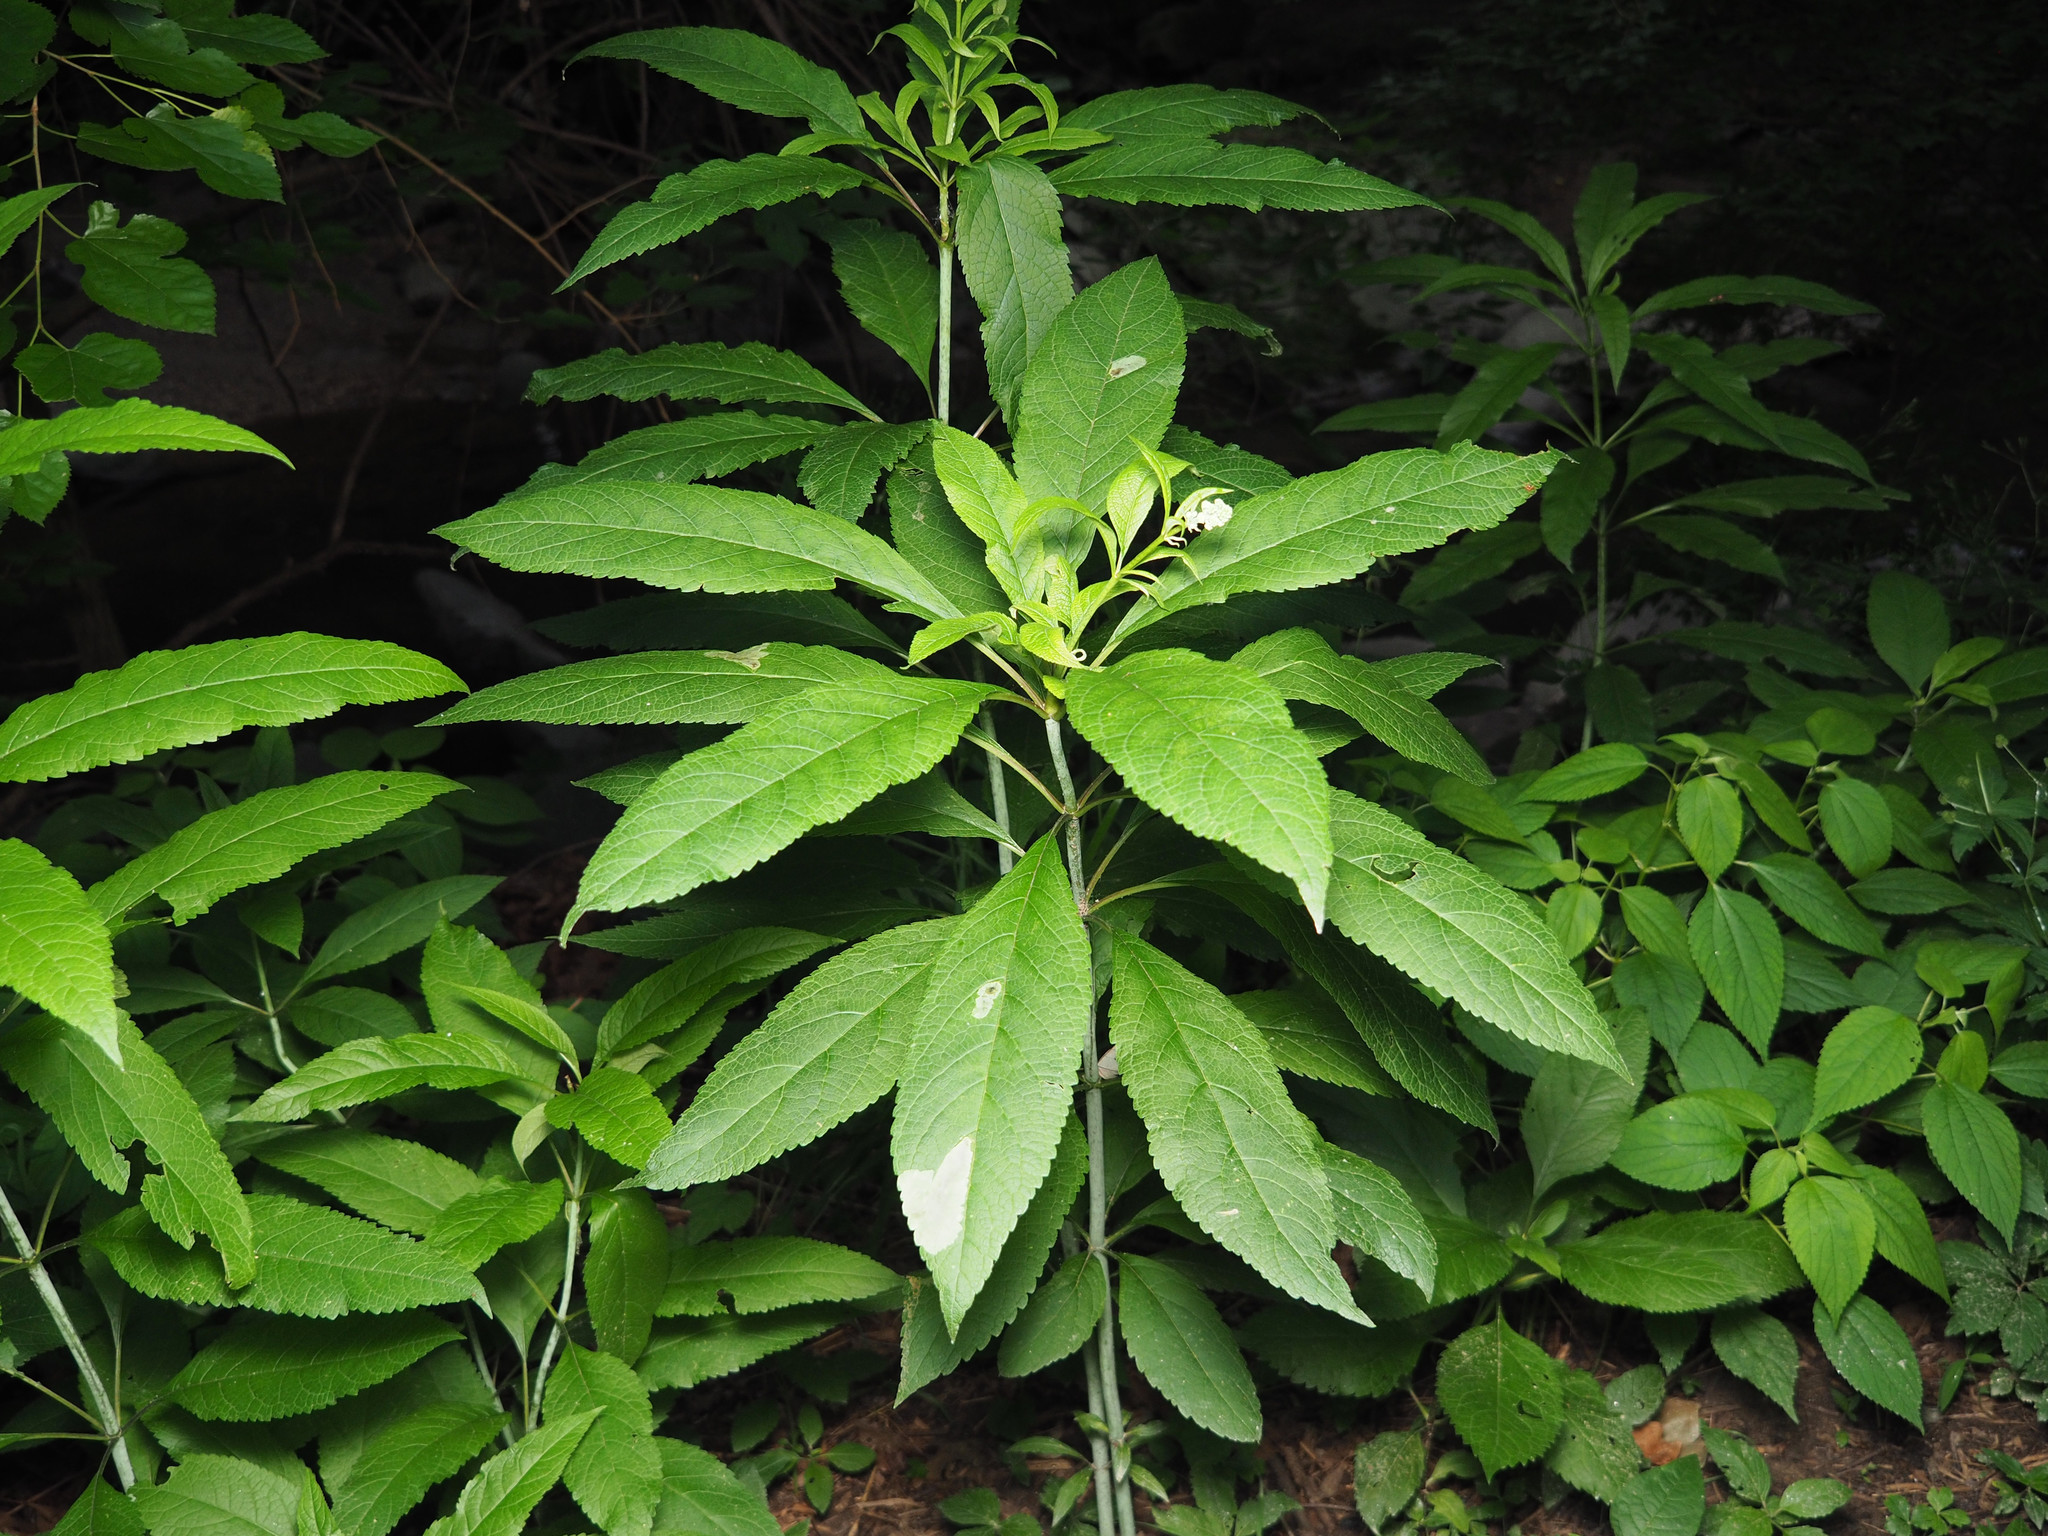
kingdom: Animalia
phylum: Arthropoda
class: Insecta
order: Diptera
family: Agromyzidae
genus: Calycomyza
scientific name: Calycomyza flavinotum
